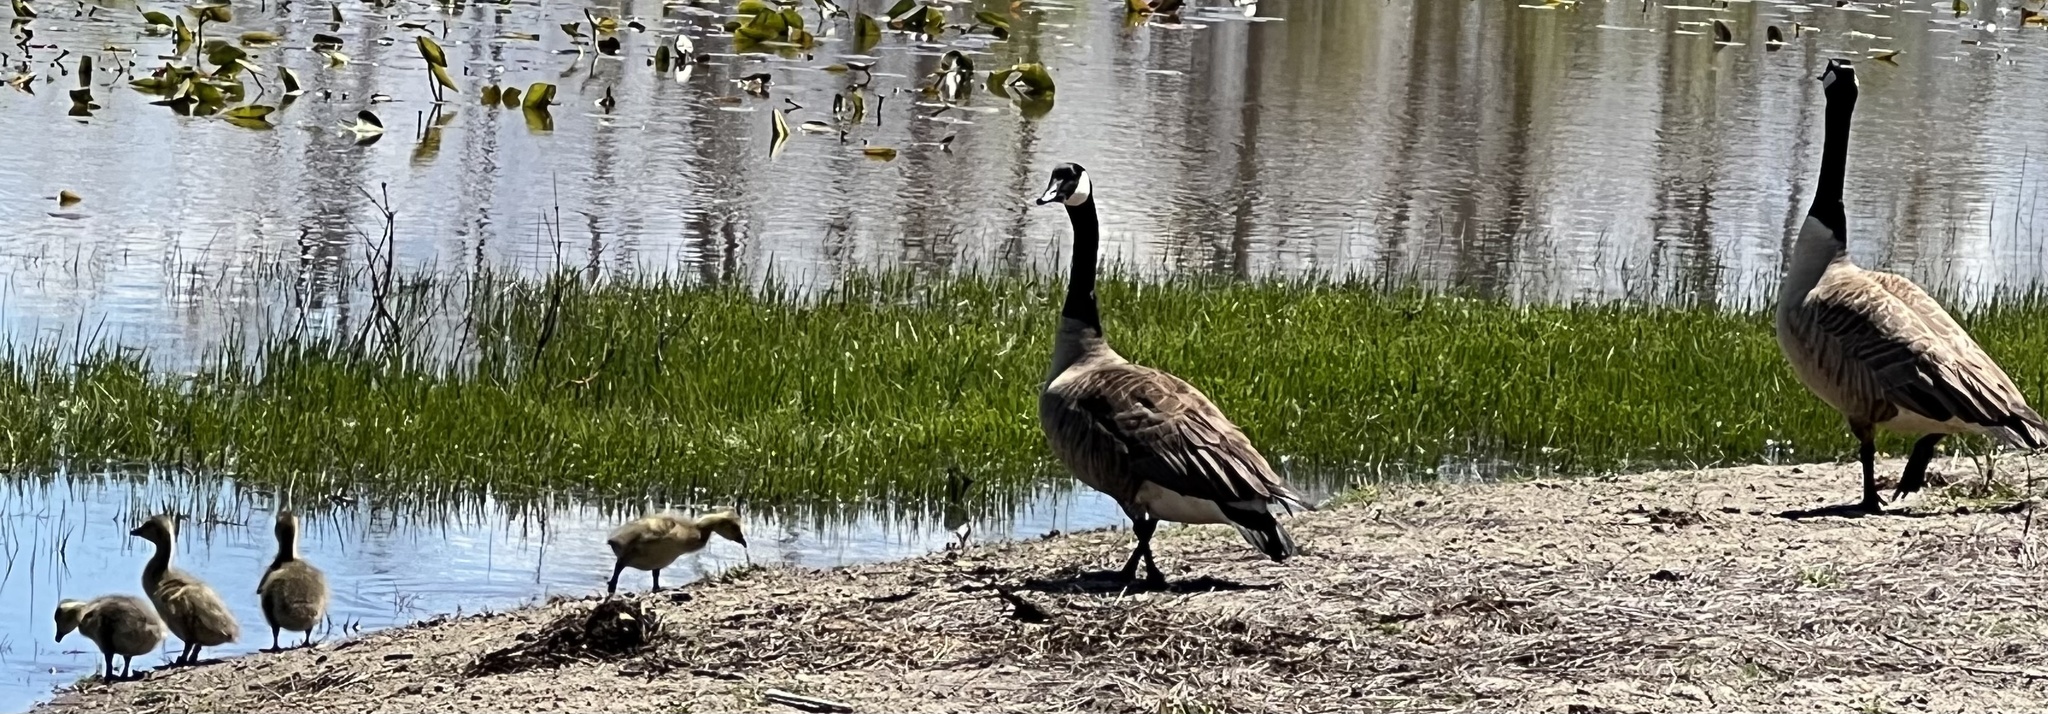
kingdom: Animalia
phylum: Chordata
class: Aves
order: Anseriformes
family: Anatidae
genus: Branta
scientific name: Branta canadensis
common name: Canada goose
